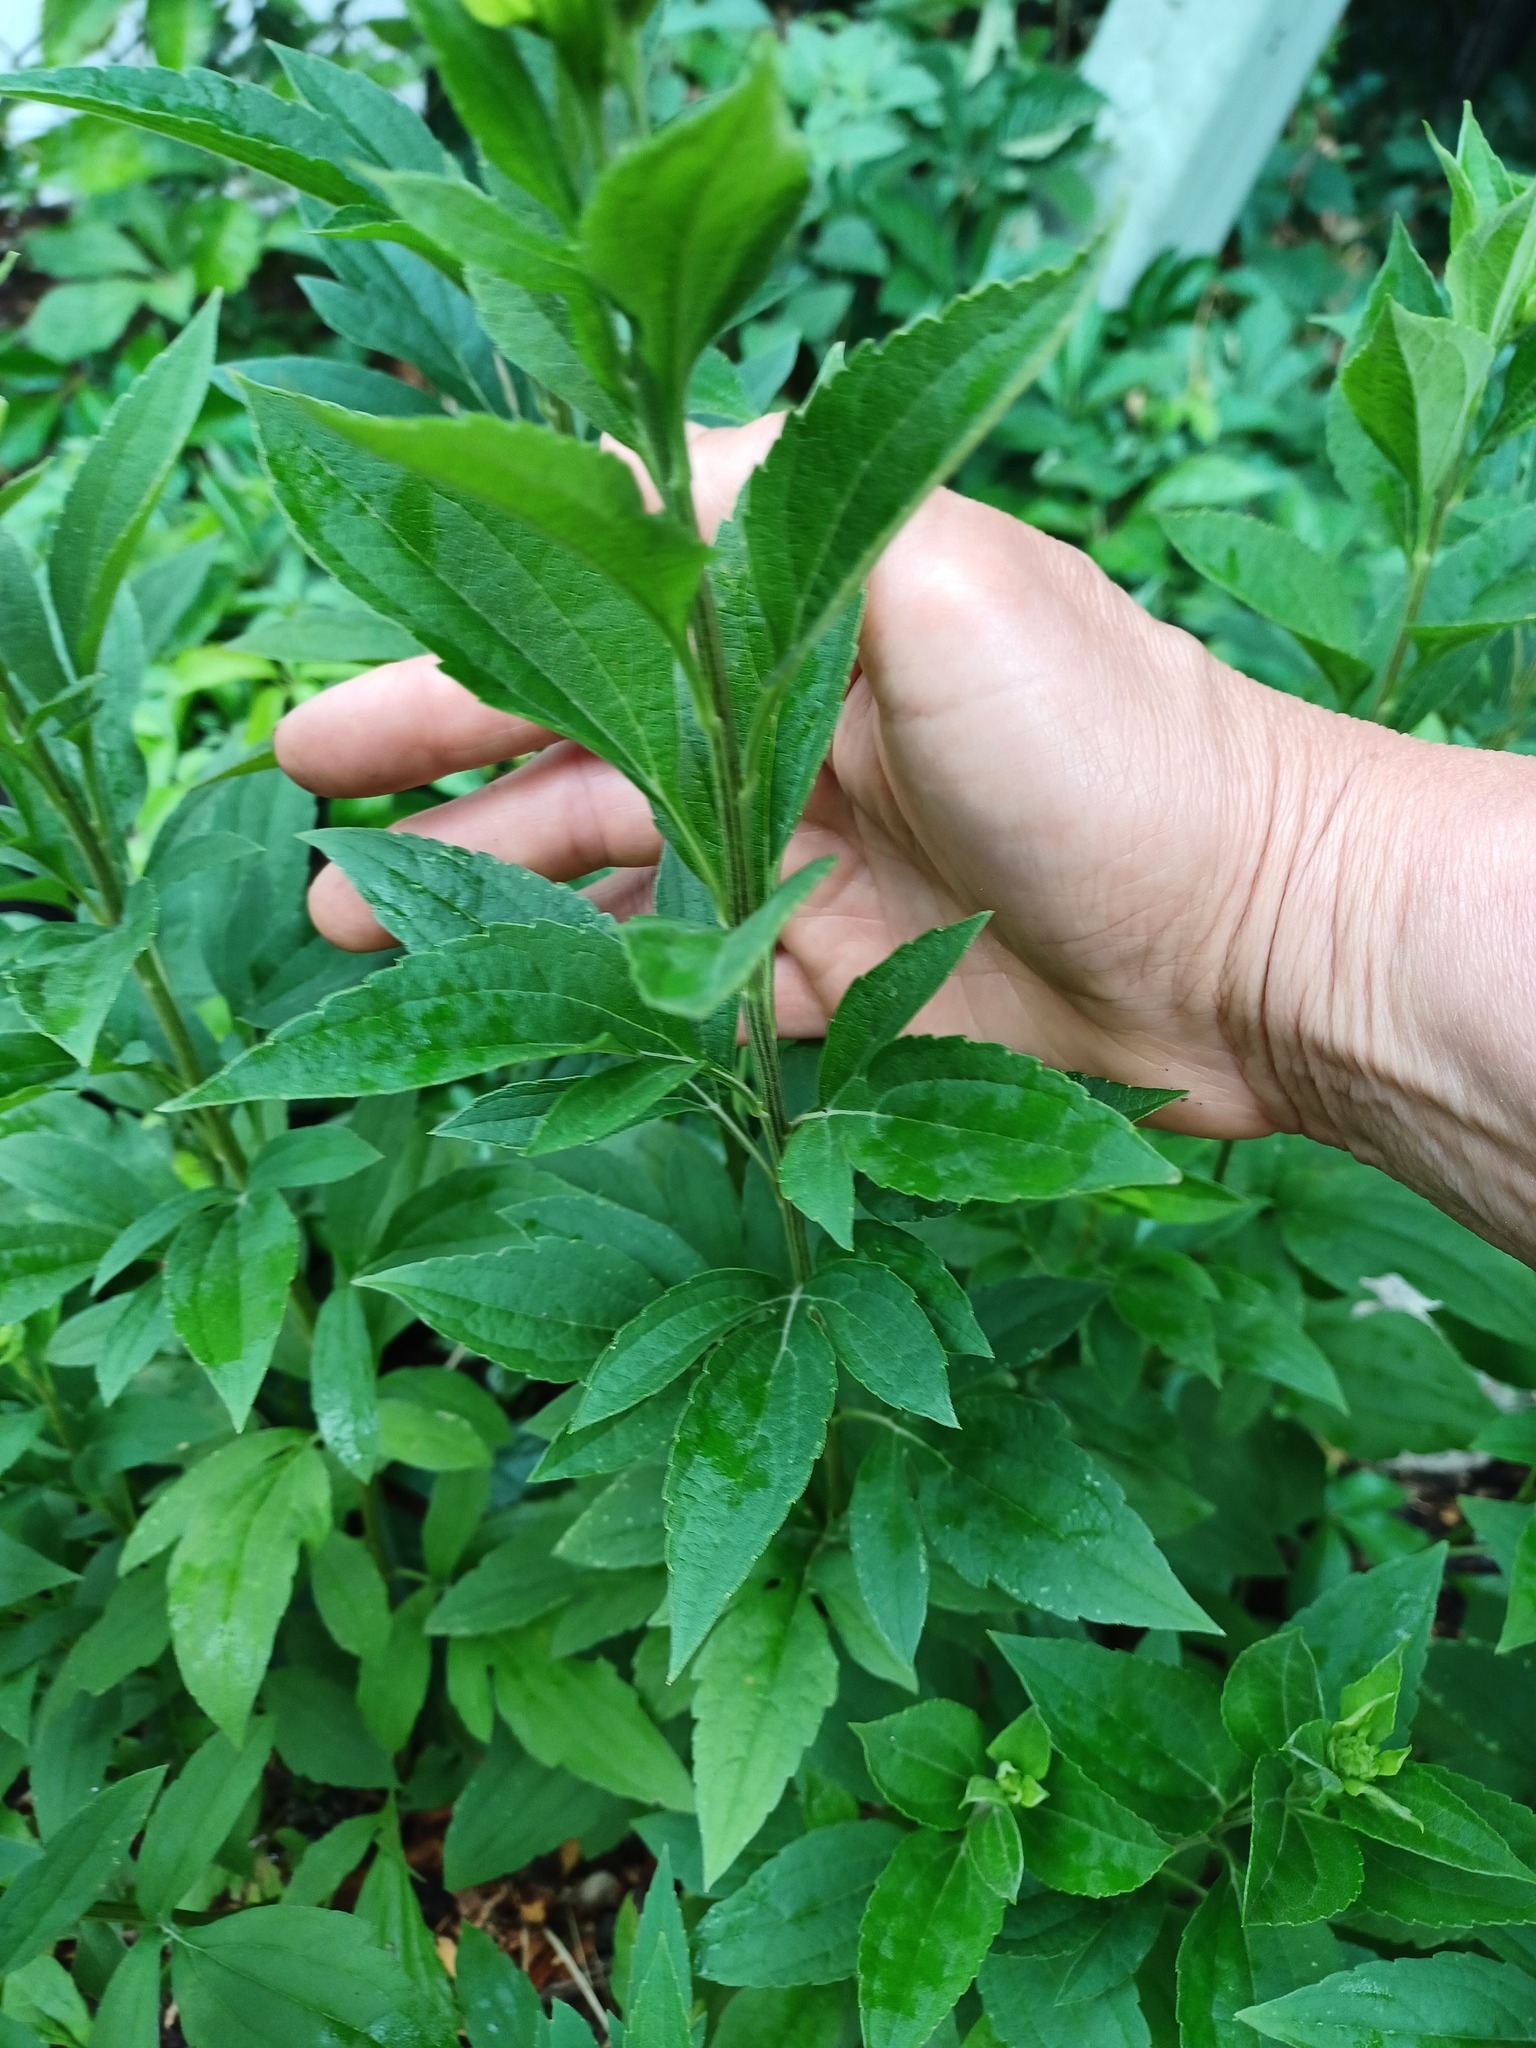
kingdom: Plantae
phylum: Tracheophyta
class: Magnoliopsida
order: Asterales
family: Asteraceae
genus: Rudbeckia
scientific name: Rudbeckia subtomentosa
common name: Sweet coneflower
